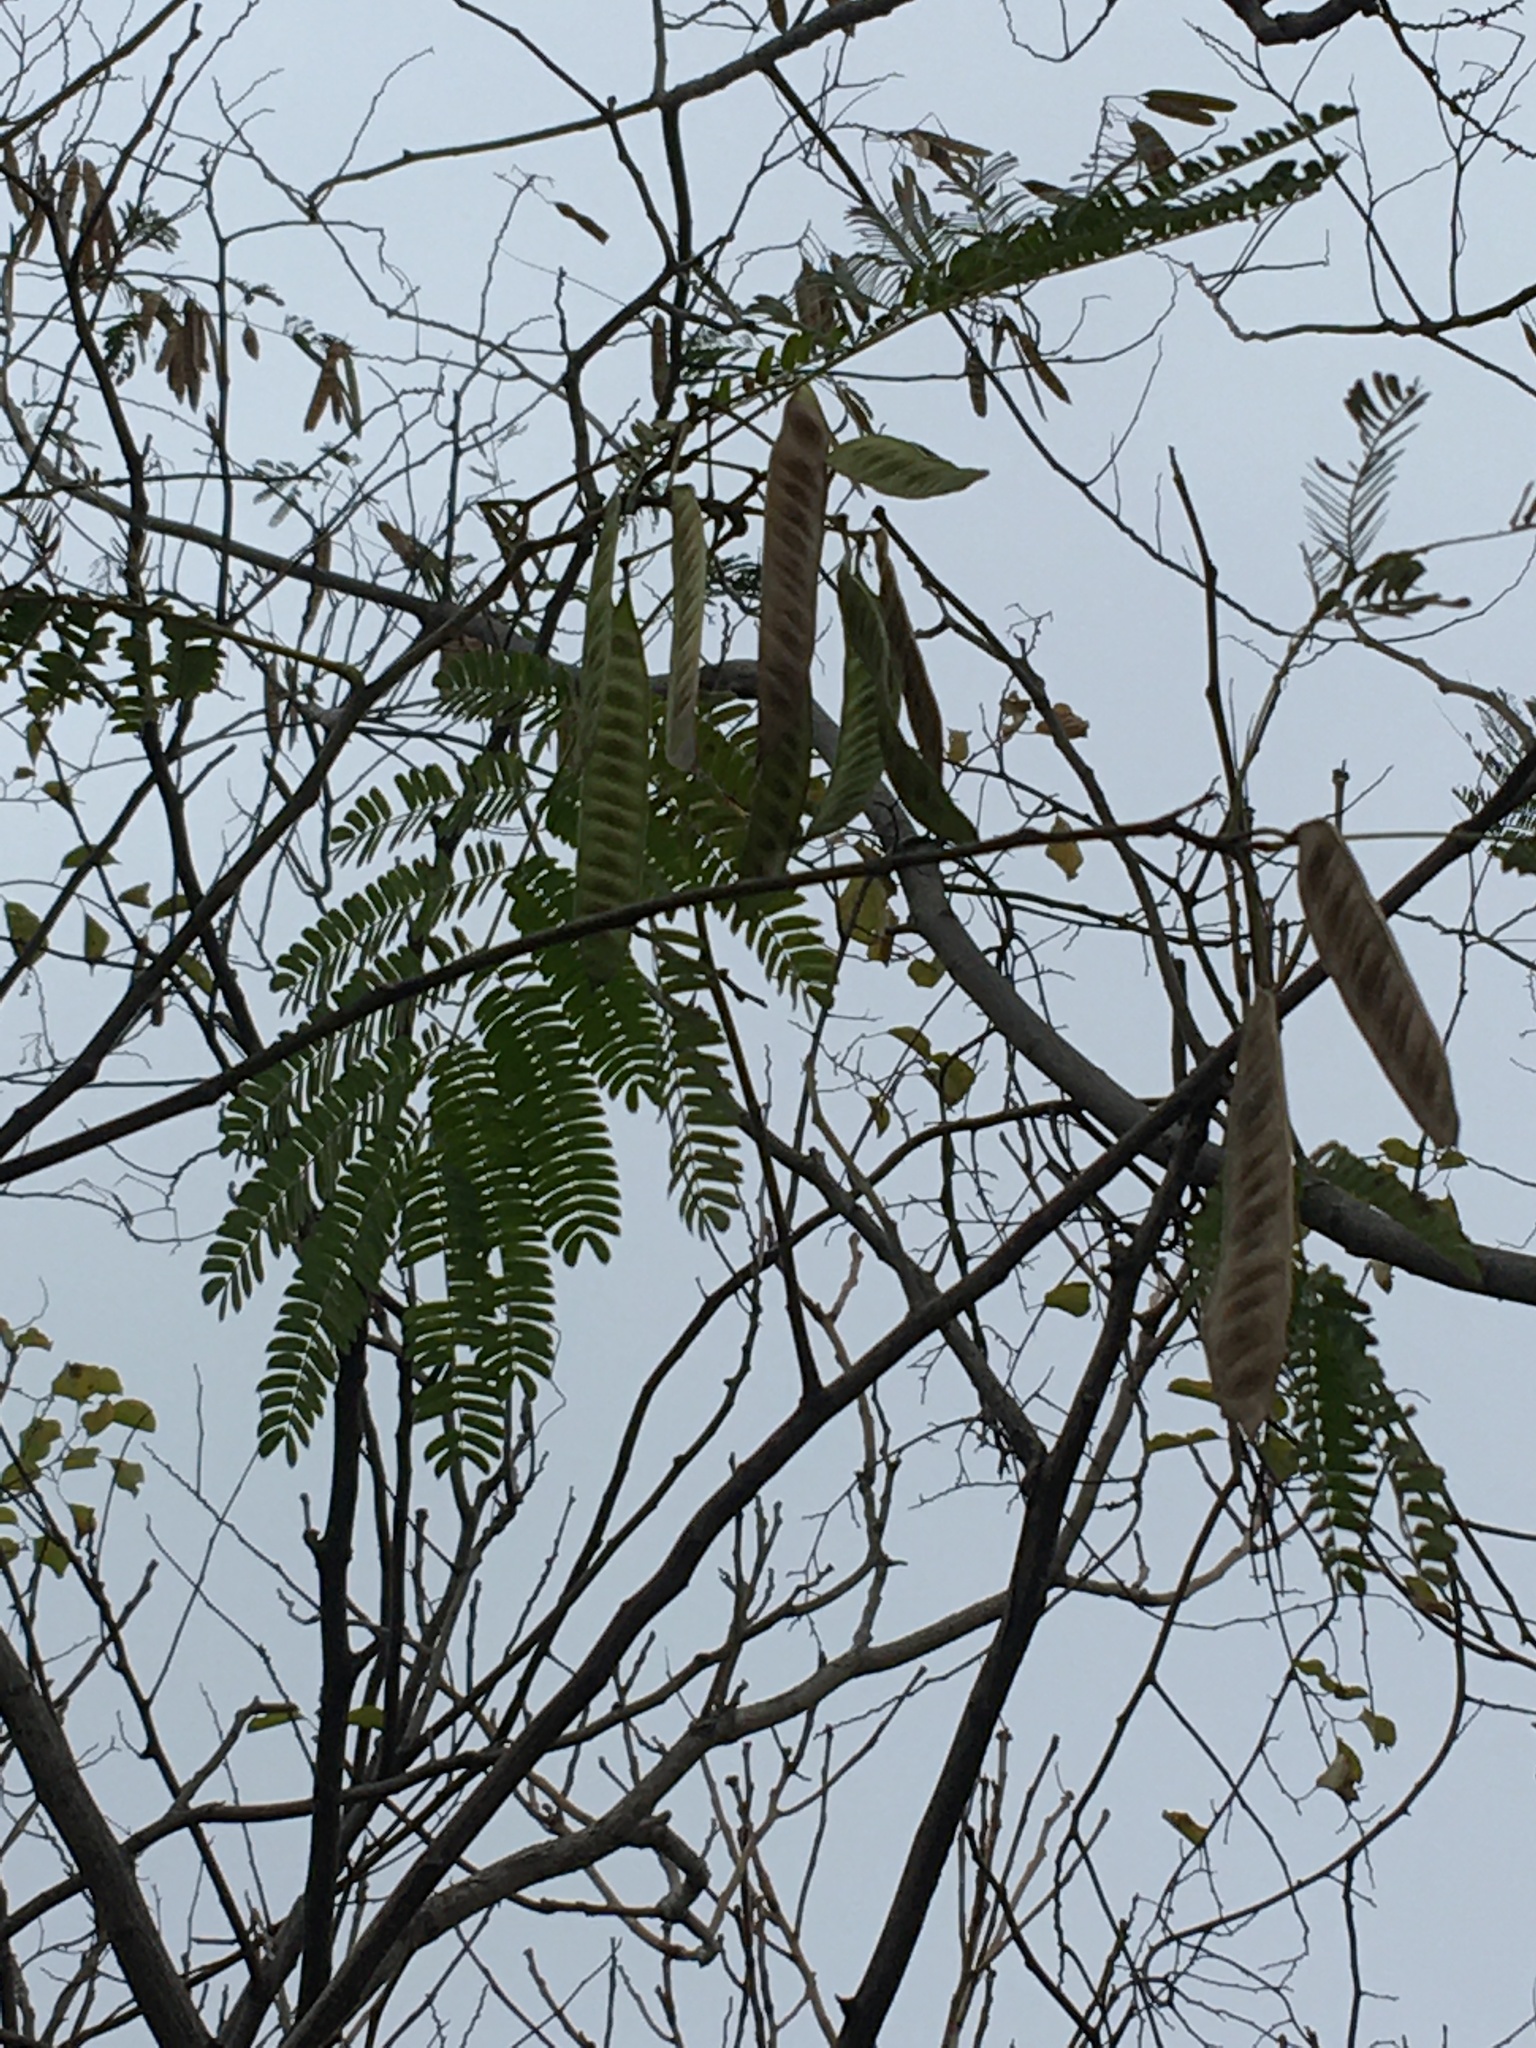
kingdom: Plantae
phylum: Tracheophyta
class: Magnoliopsida
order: Fabales
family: Fabaceae
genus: Albizia
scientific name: Albizia julibrissin
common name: Silktree
